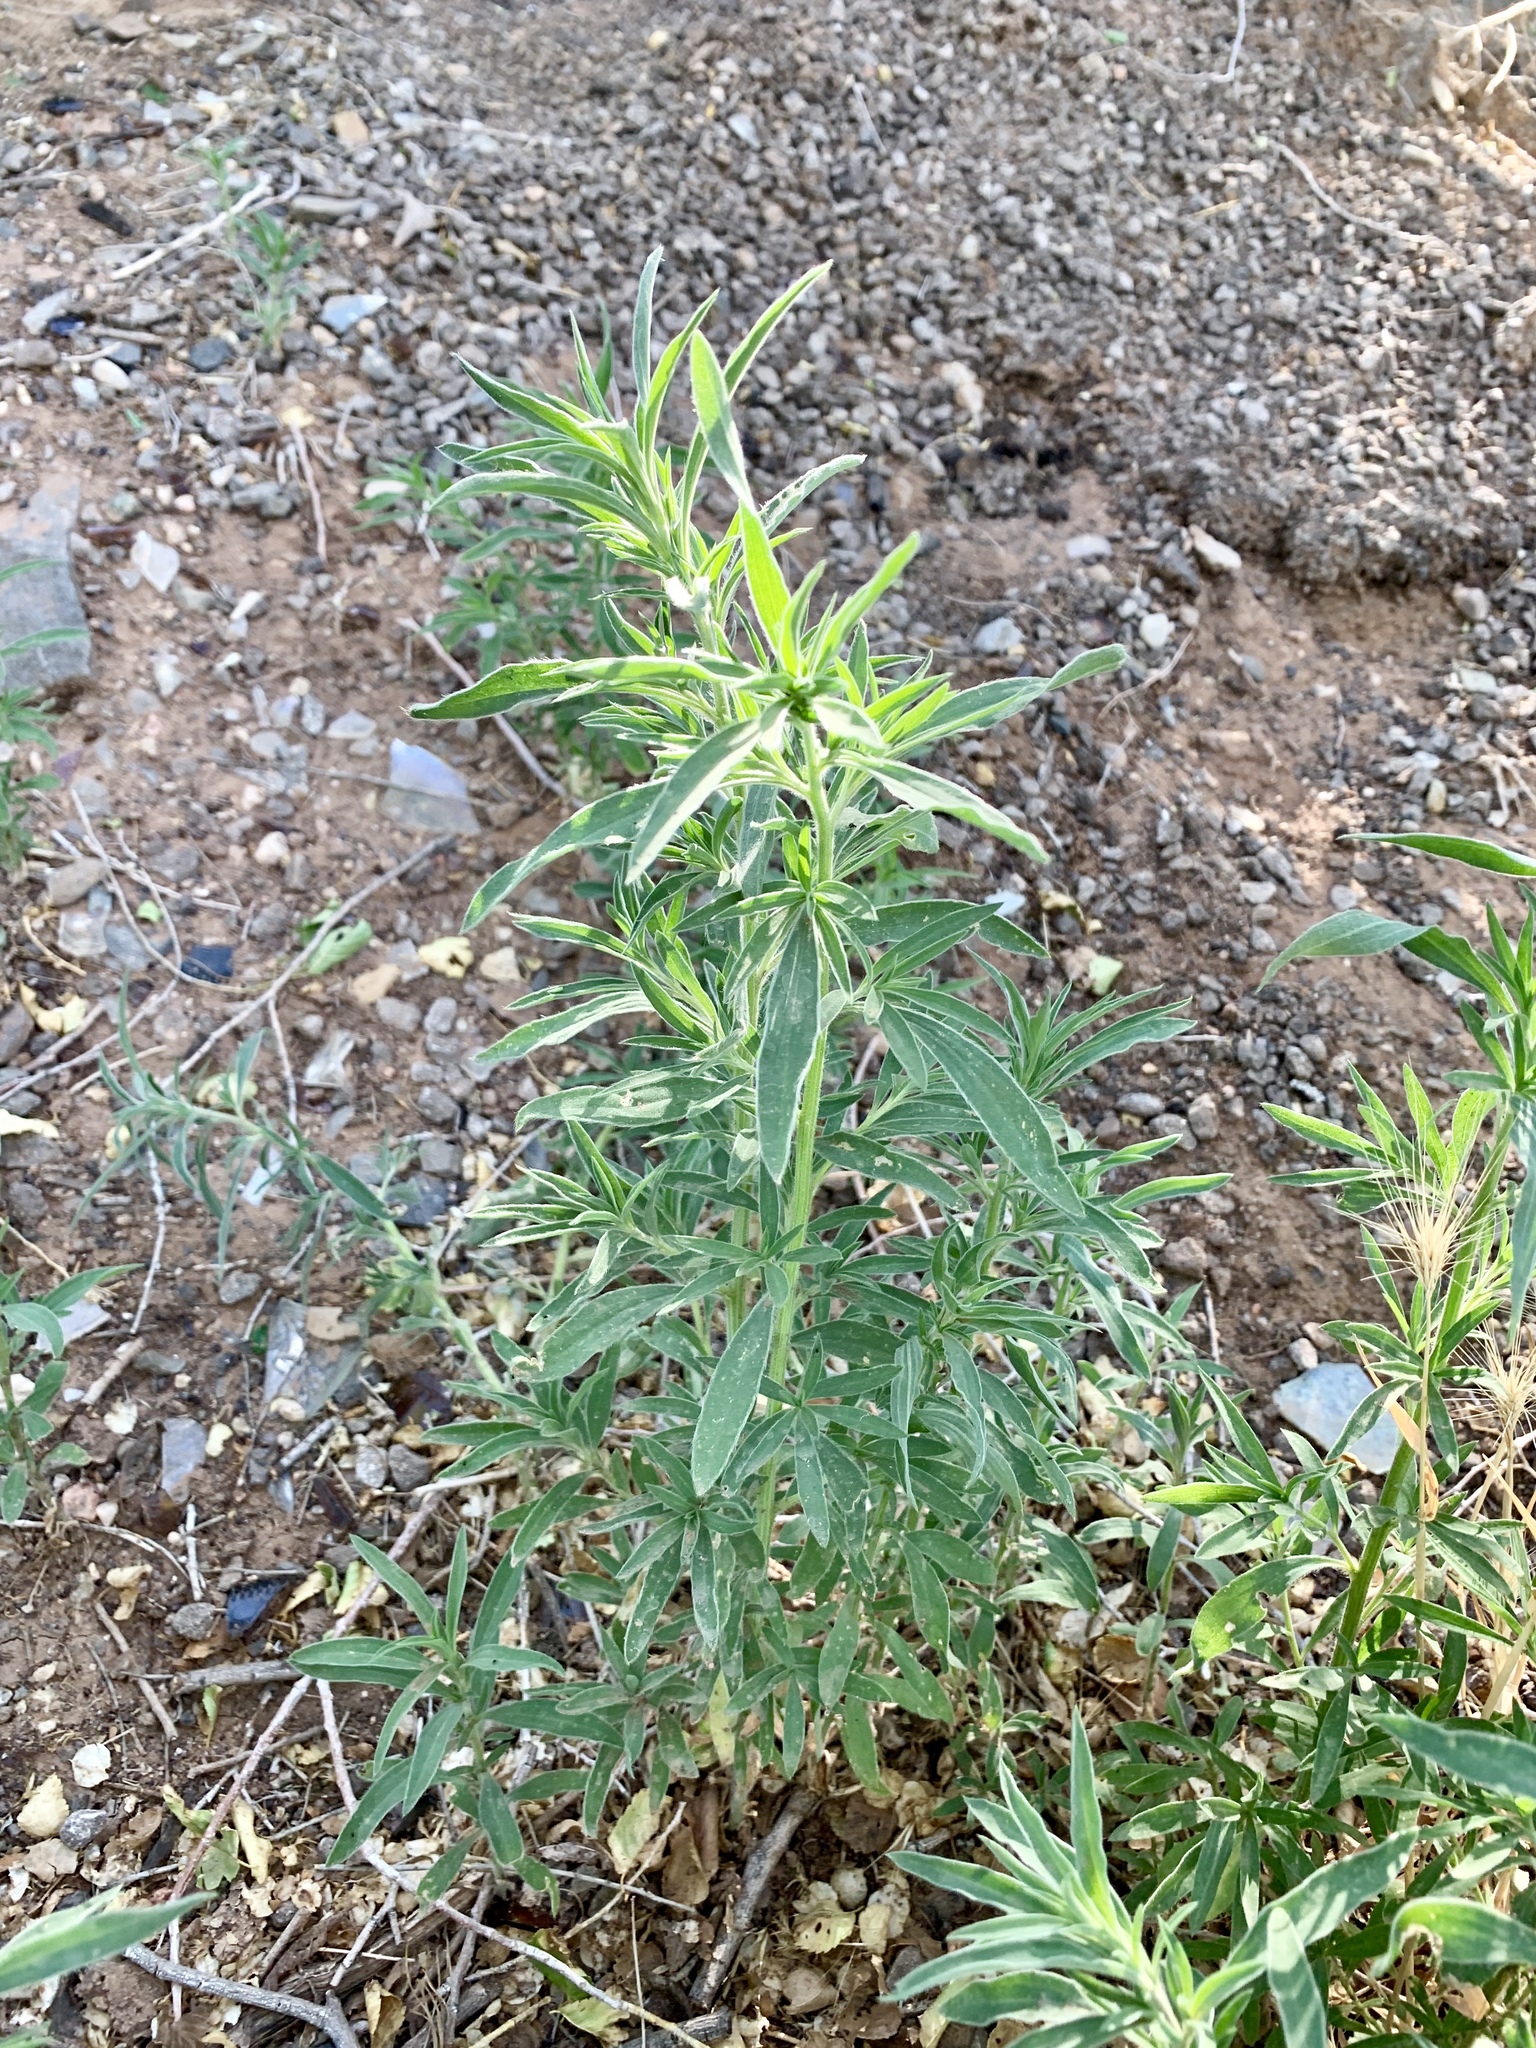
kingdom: Plantae
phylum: Tracheophyta
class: Magnoliopsida
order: Caryophyllales
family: Amaranthaceae
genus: Bassia
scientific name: Bassia scoparia
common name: Belvedere
